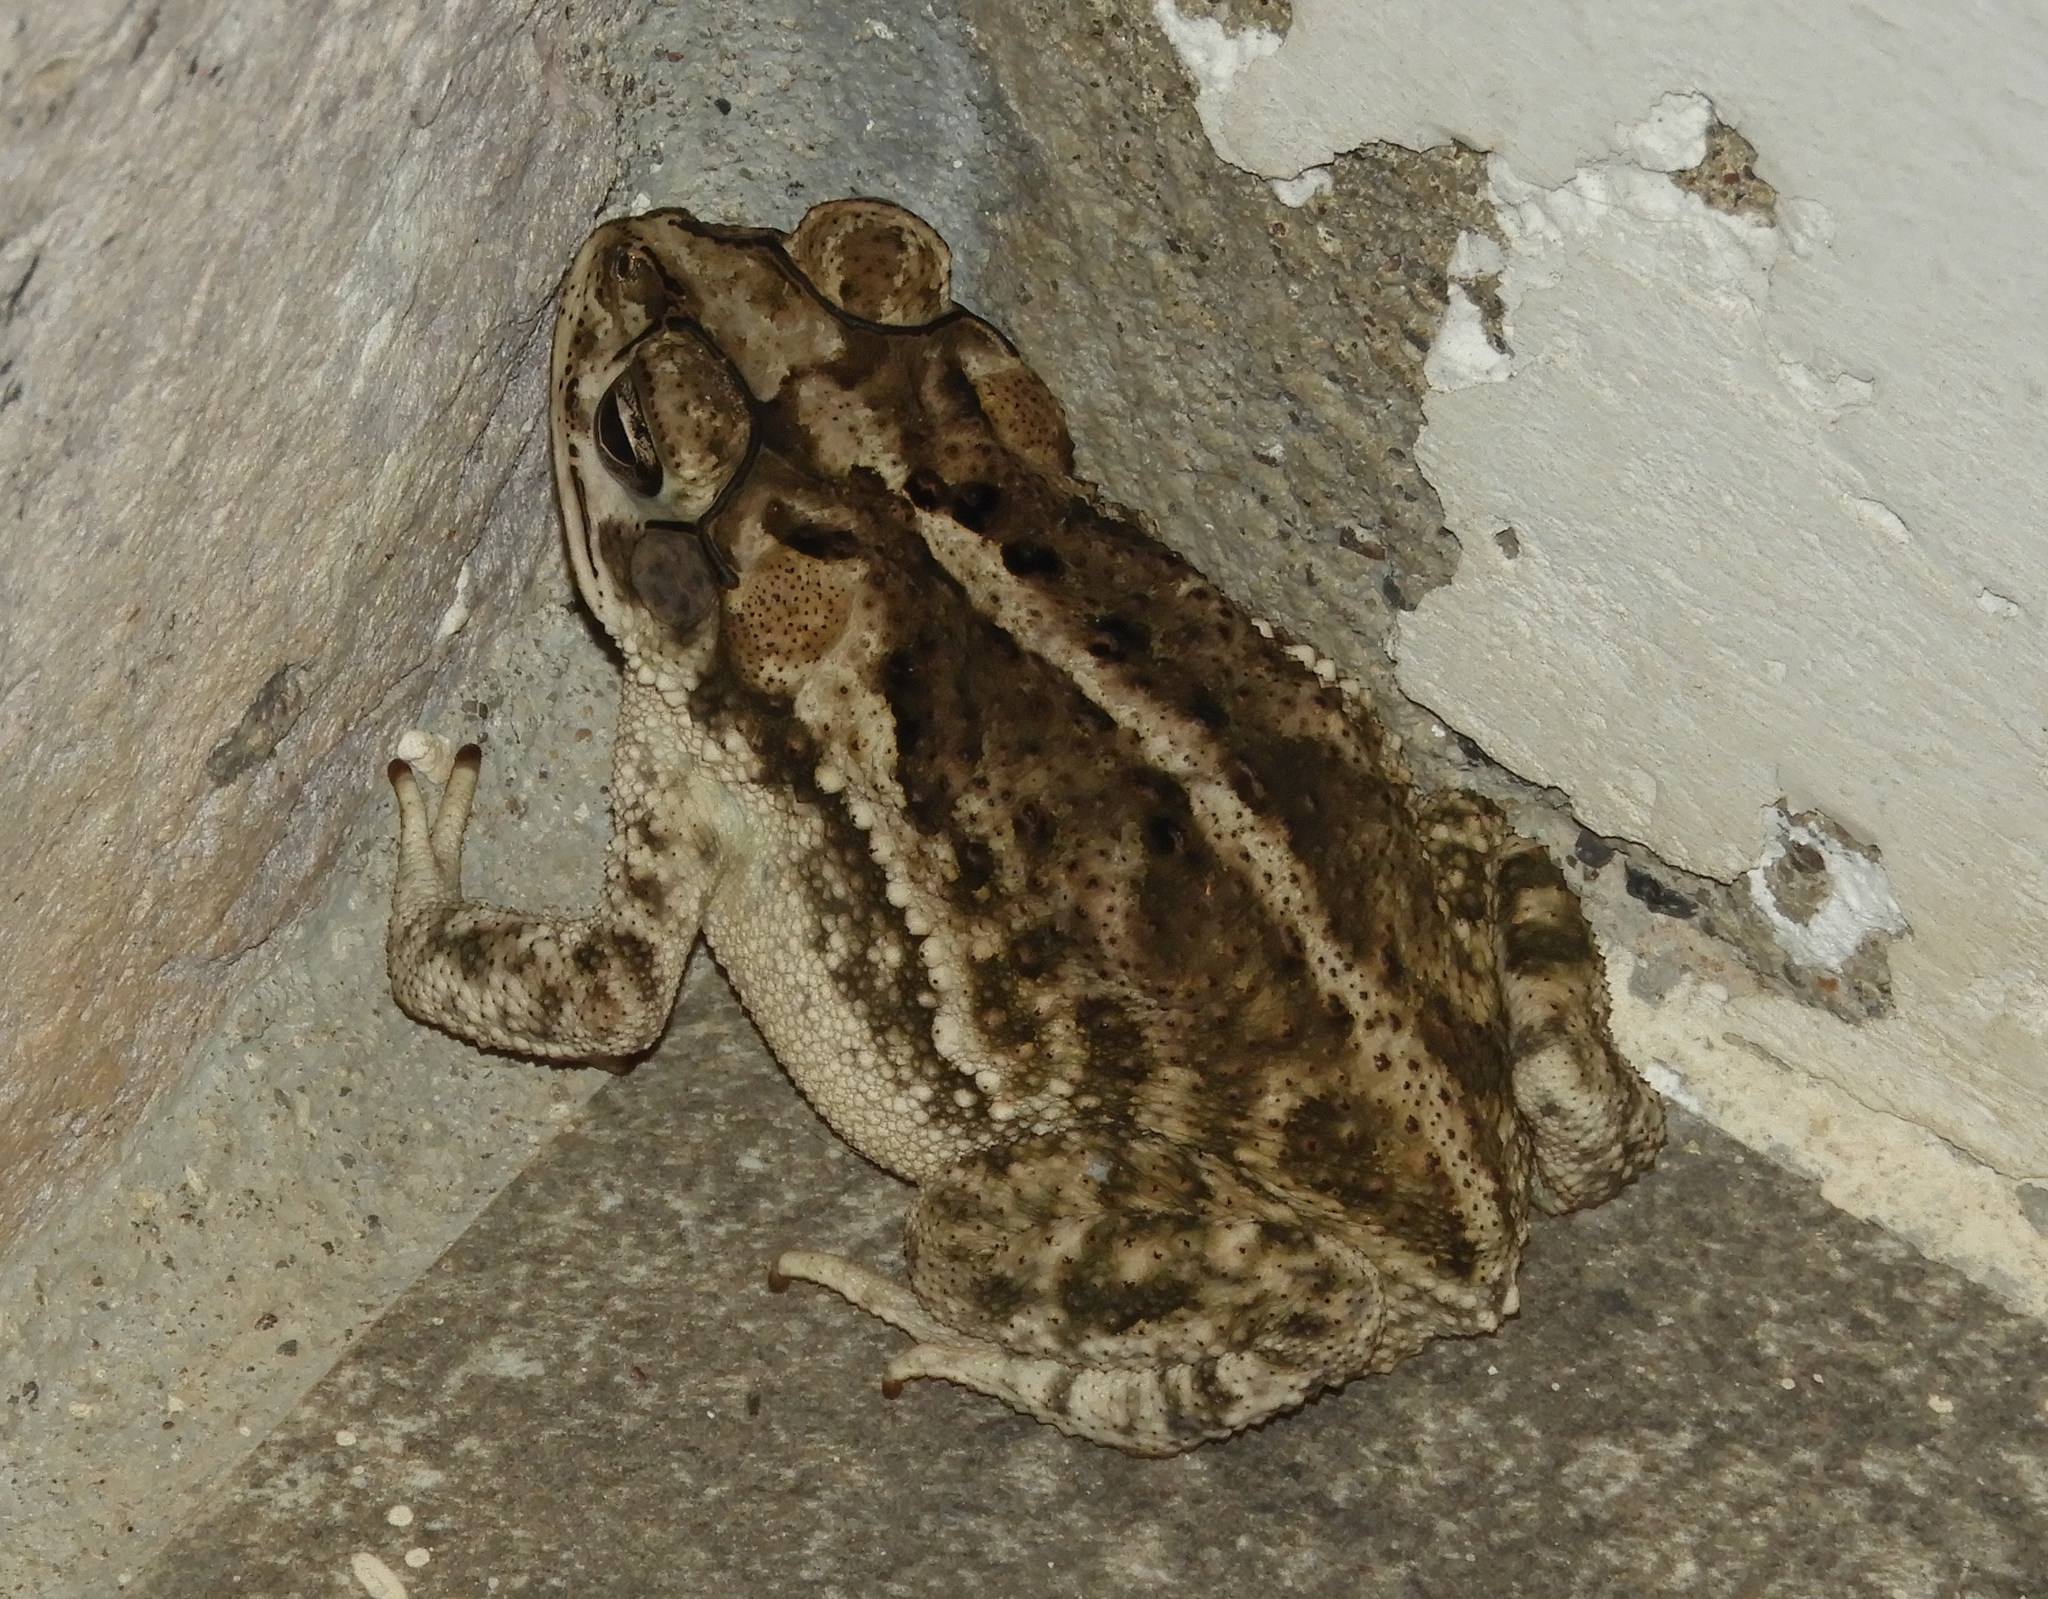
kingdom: Animalia
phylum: Chordata
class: Amphibia
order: Anura
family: Bufonidae
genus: Incilius
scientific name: Incilius mazatlanensis
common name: Sinaloa toad
